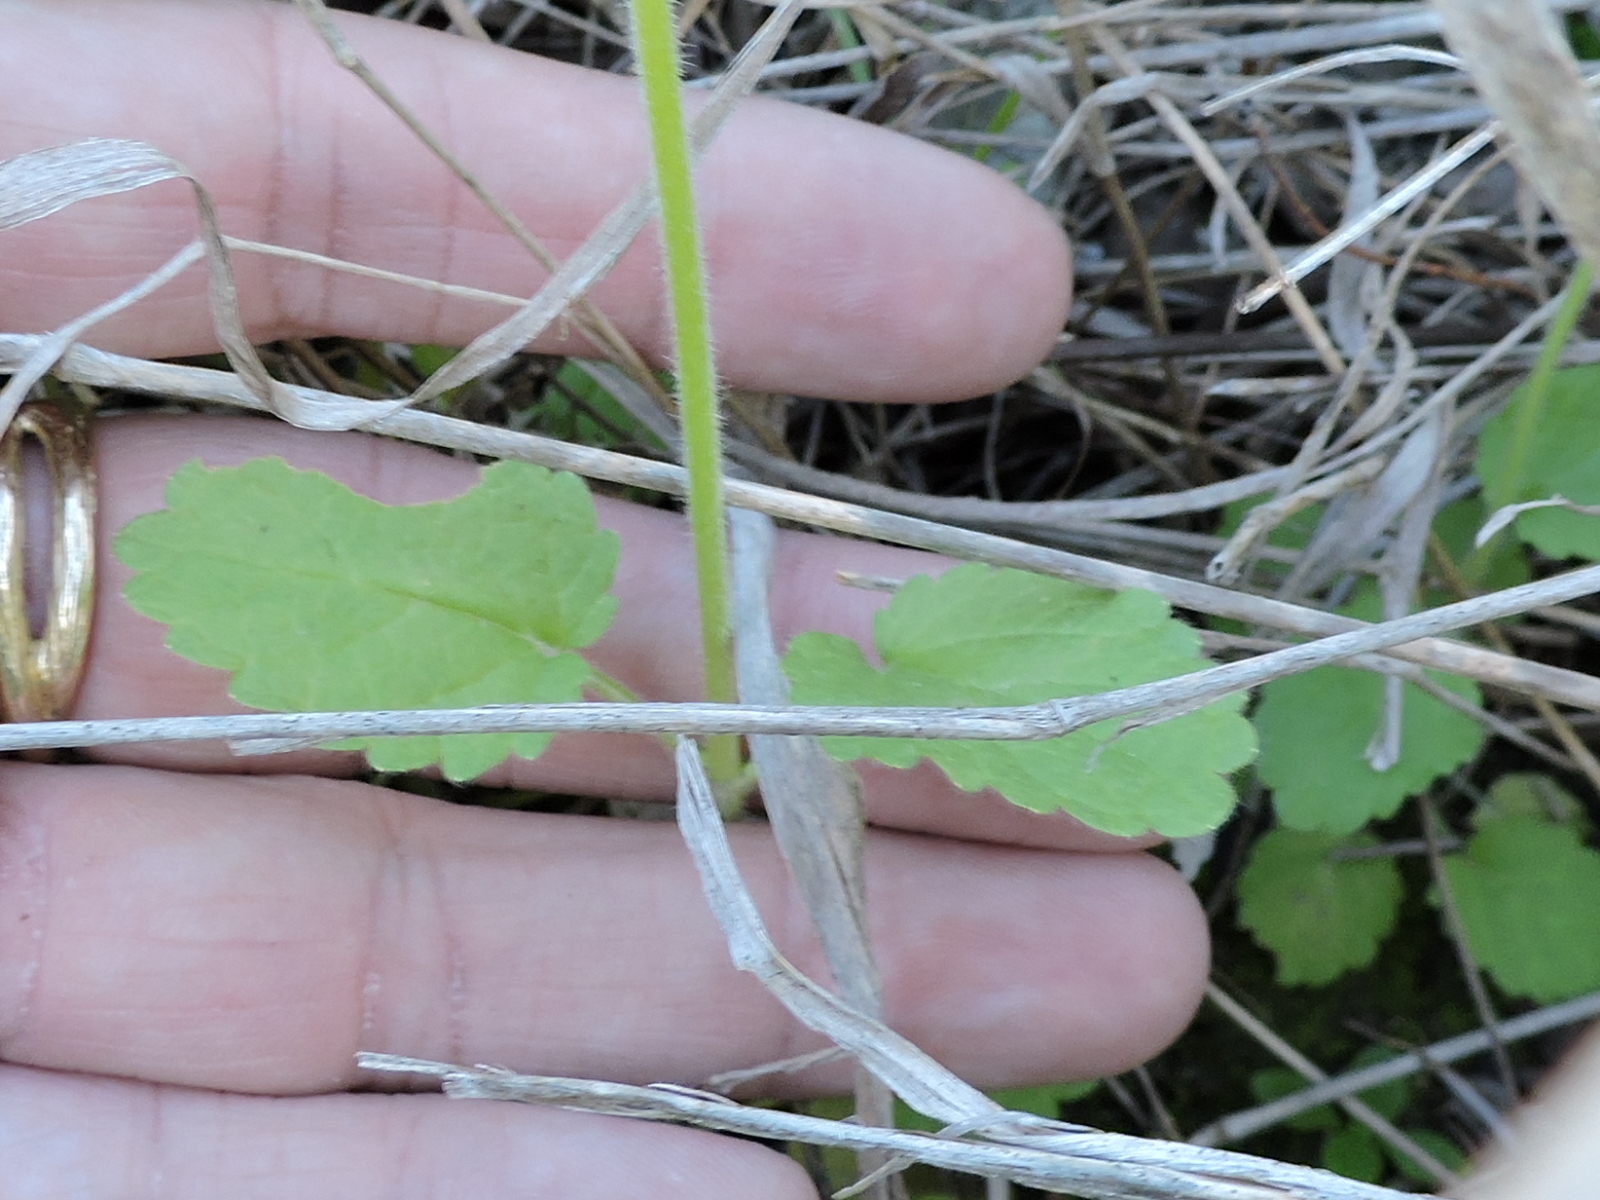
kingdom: Plantae
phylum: Tracheophyta
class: Magnoliopsida
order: Lamiales
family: Lamiaceae
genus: Stachys
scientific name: Stachys
